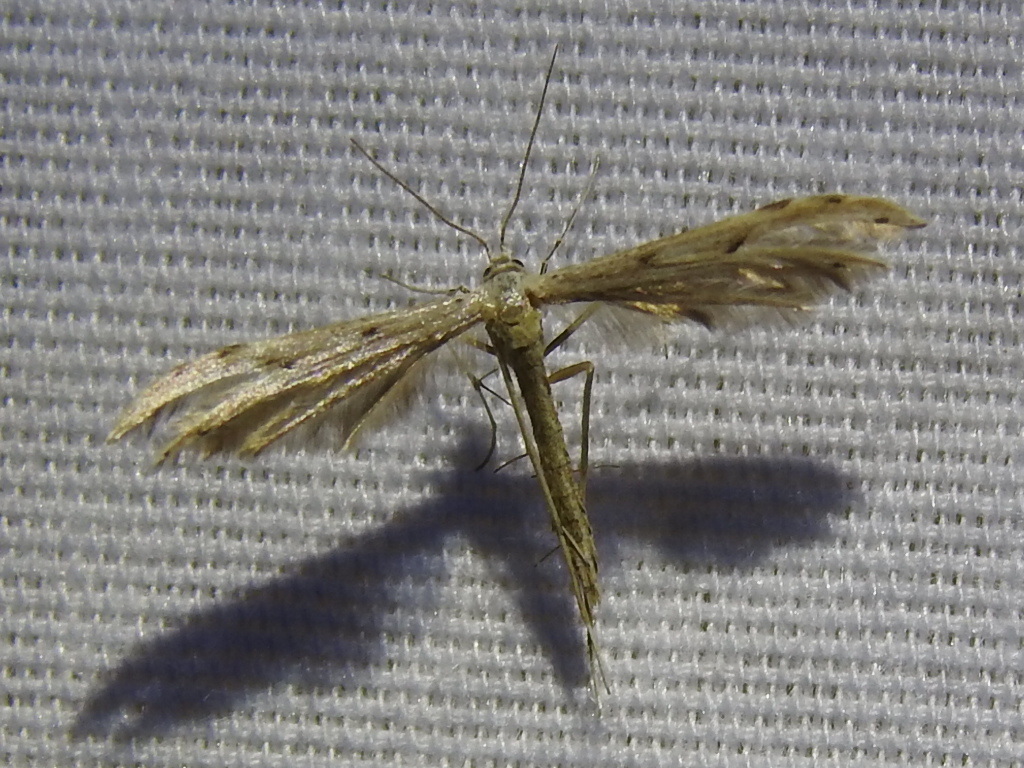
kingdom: Animalia
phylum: Arthropoda
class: Insecta
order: Lepidoptera
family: Pterophoridae
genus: Pselnophorus
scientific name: Pselnophorus belfragei
